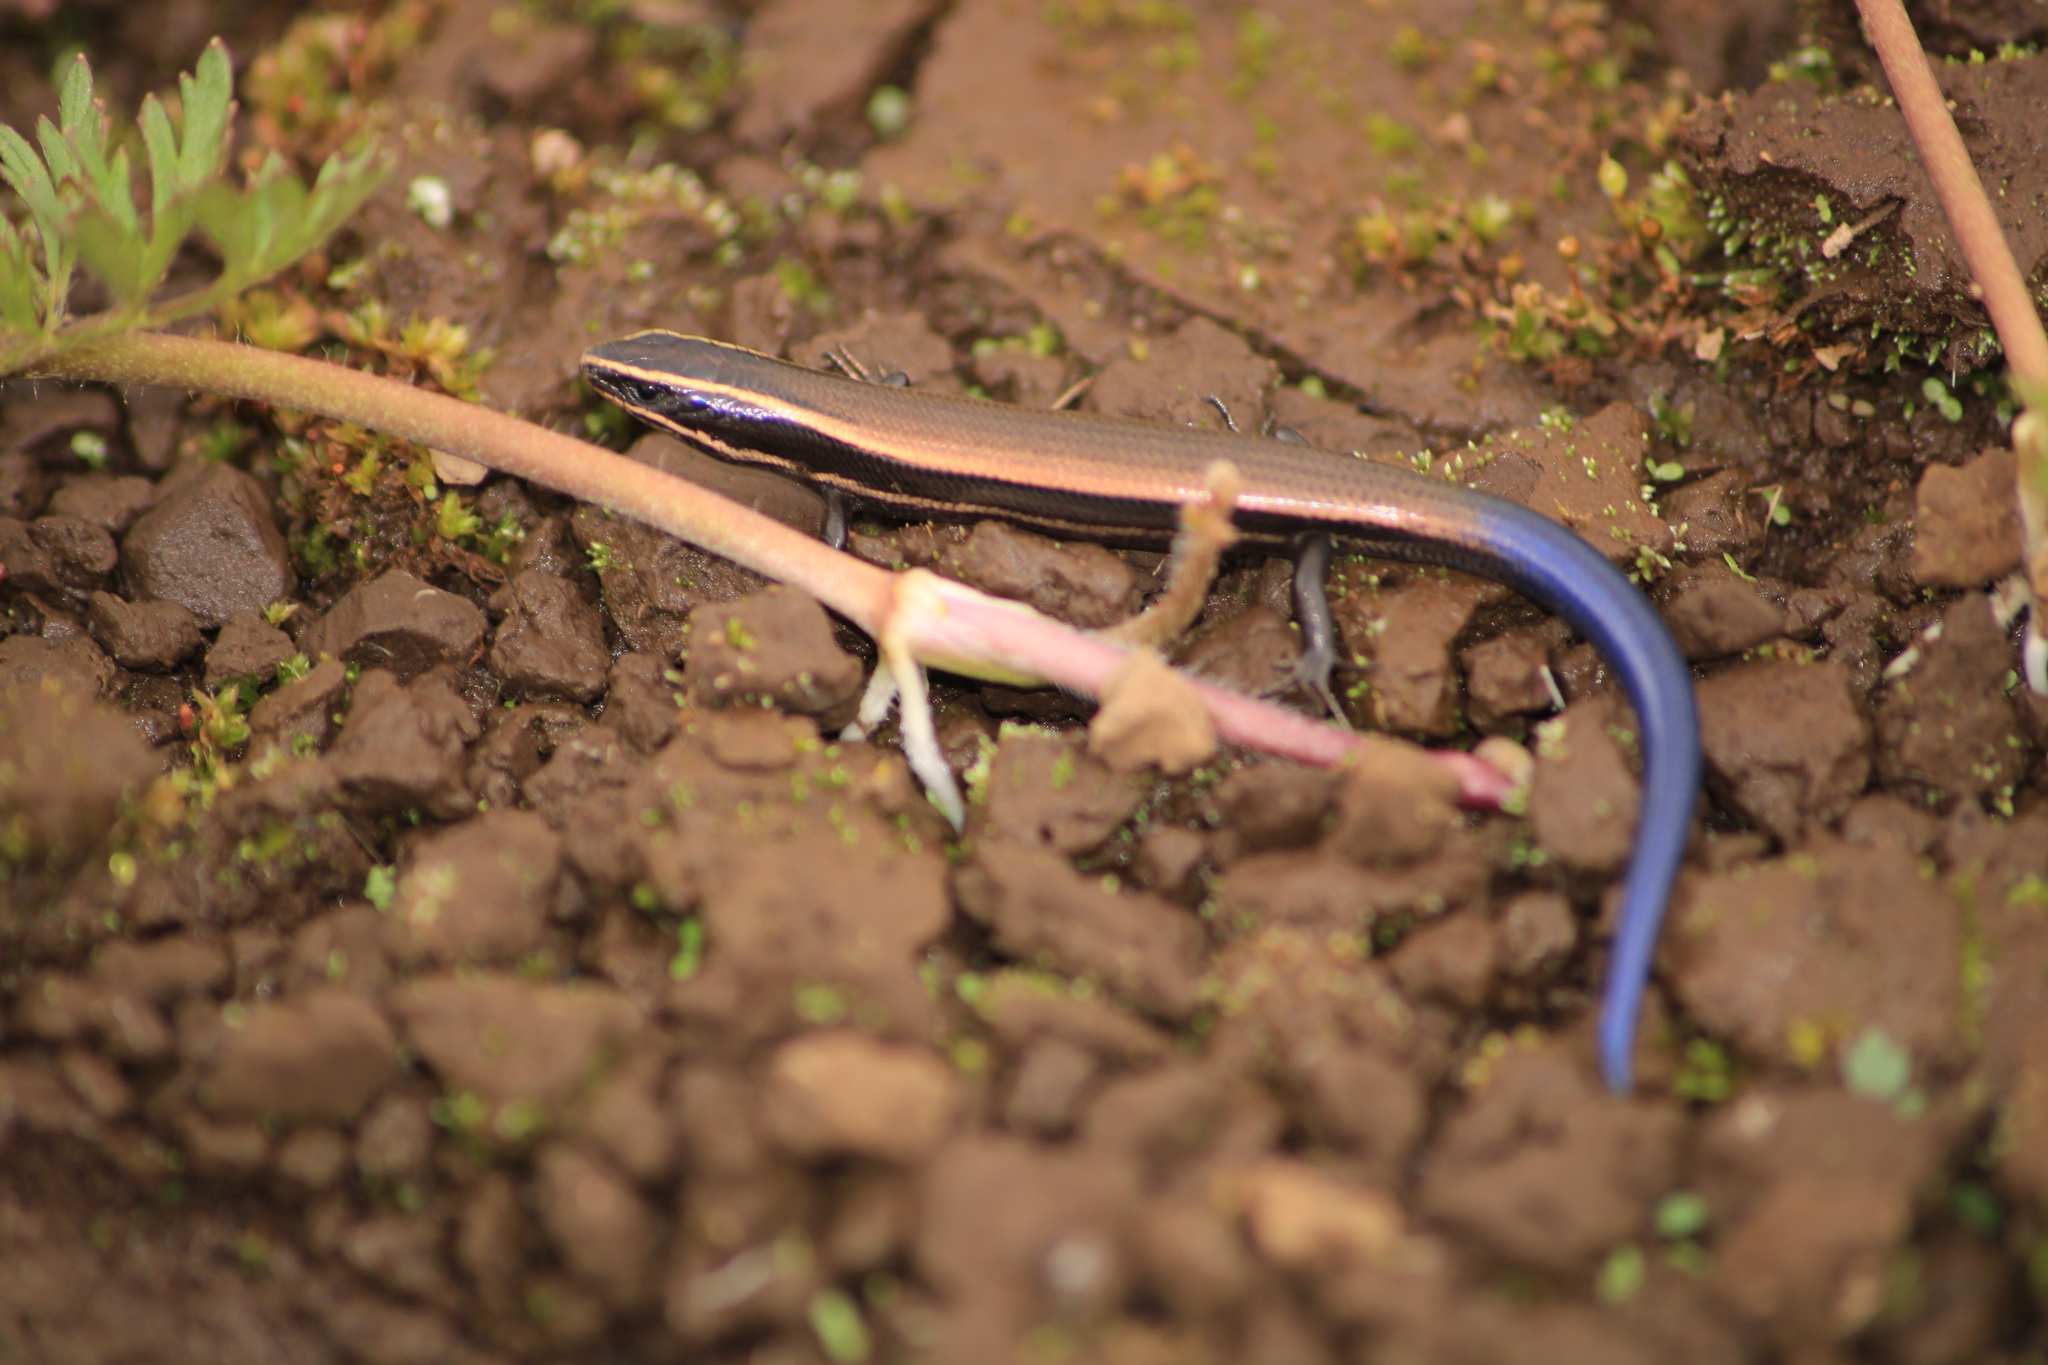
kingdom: Animalia
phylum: Chordata
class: Squamata
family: Scincidae
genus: Plestiodon
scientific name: Plestiodon dugesii
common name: Duges' skink
